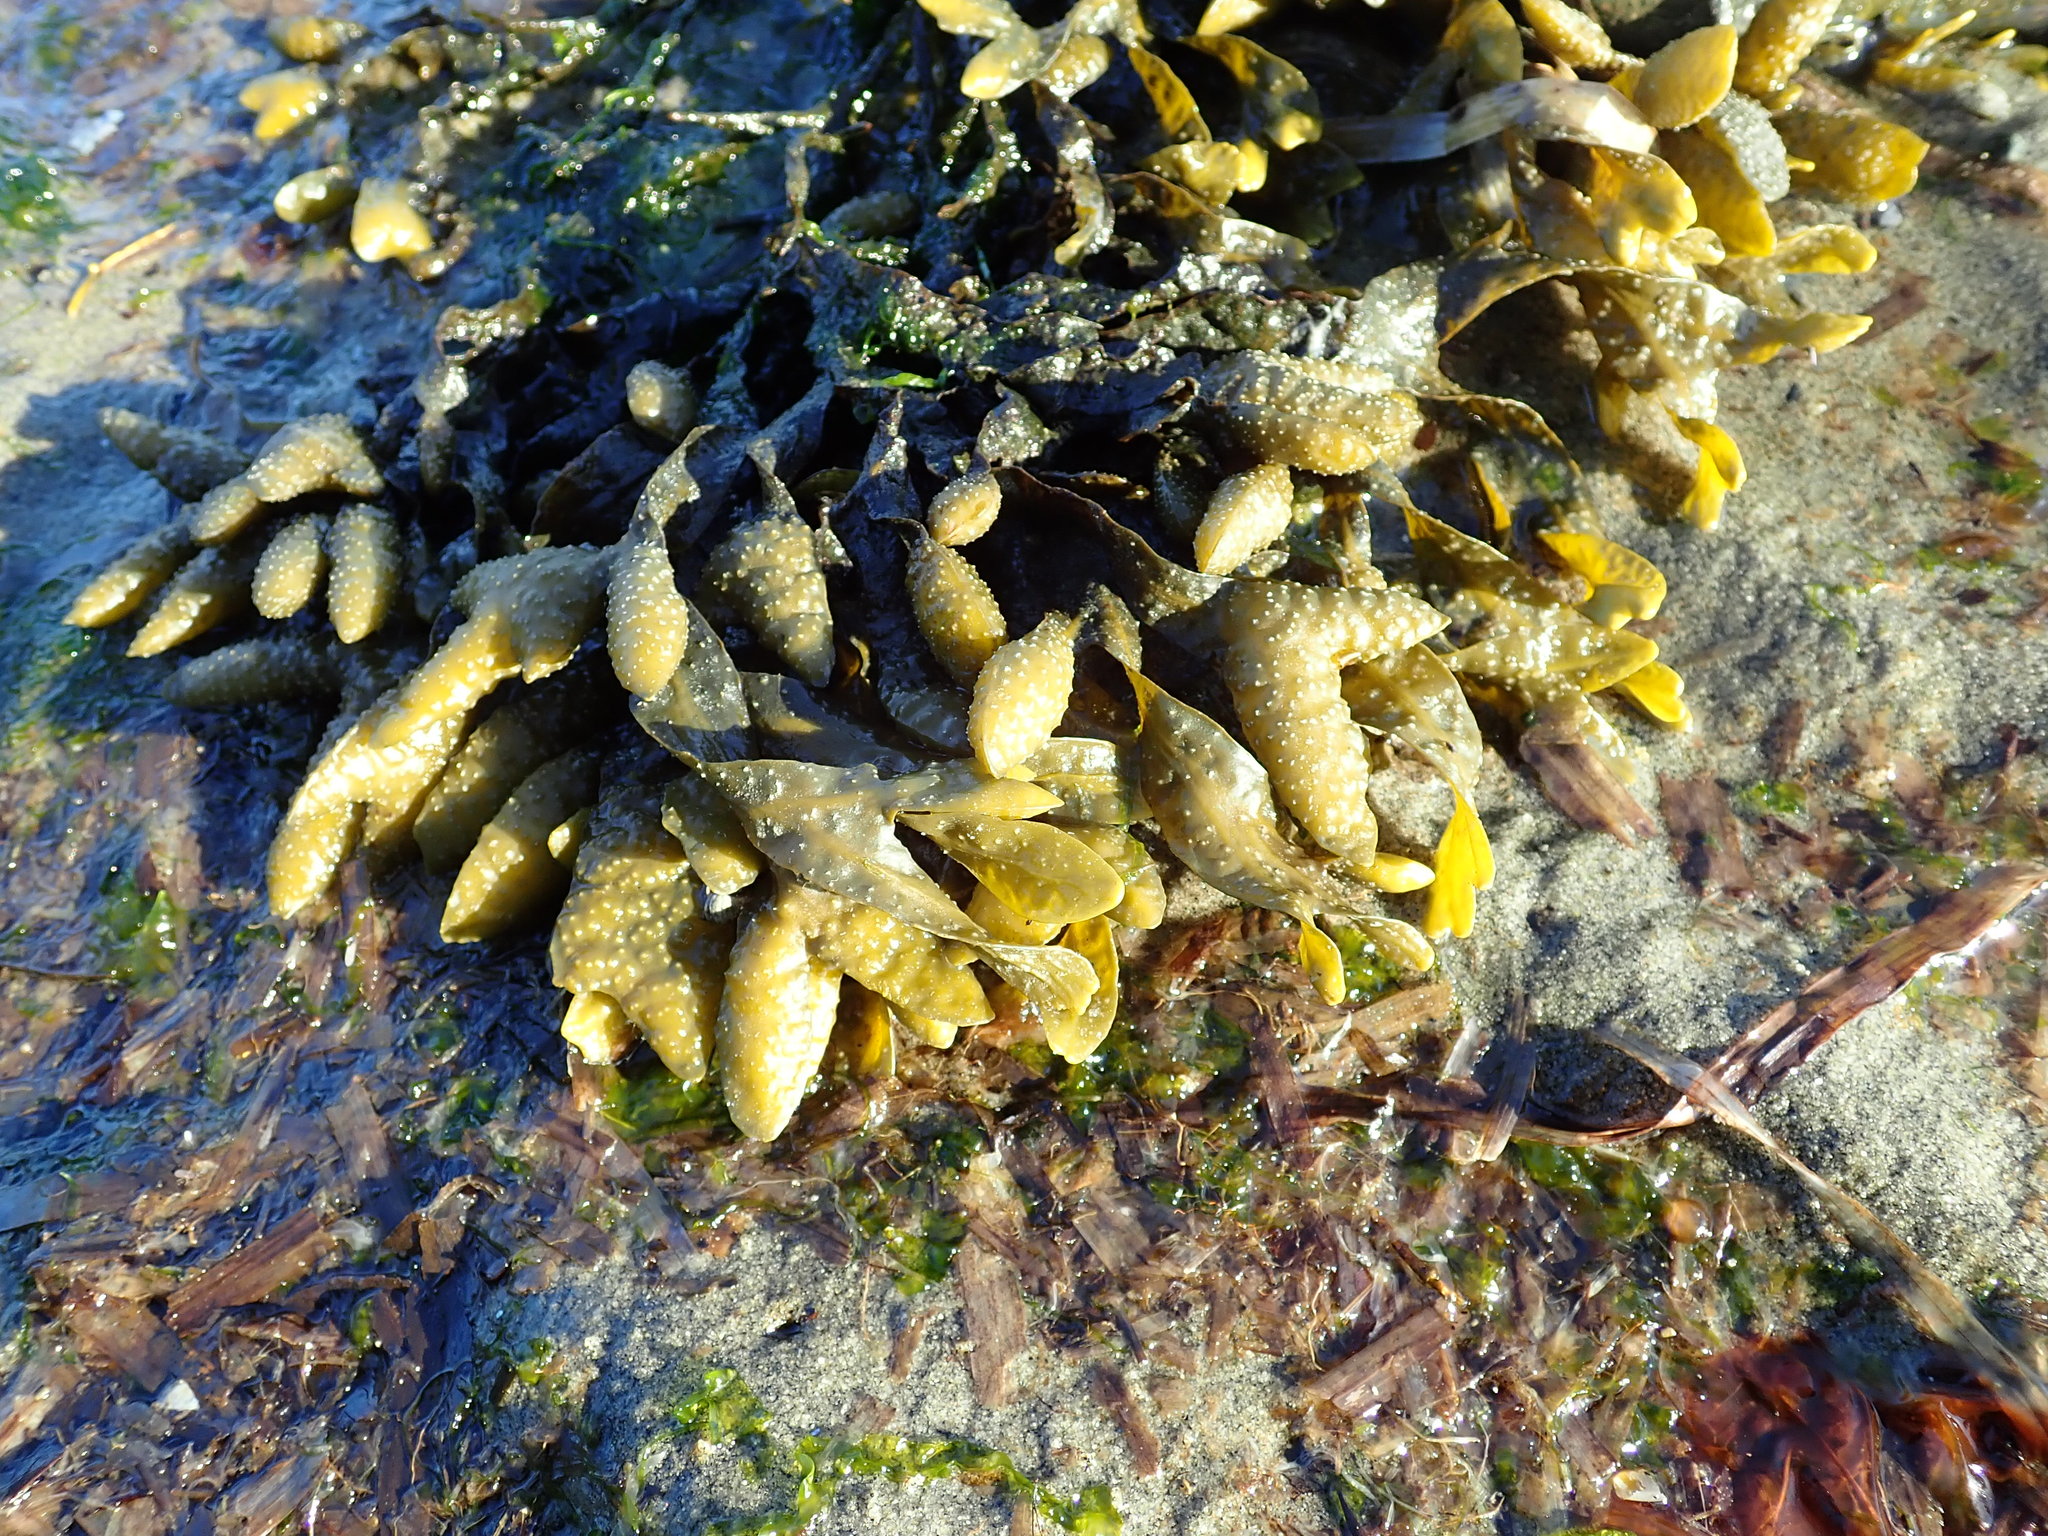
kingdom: Chromista
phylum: Ochrophyta
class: Phaeophyceae
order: Fucales
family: Fucaceae
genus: Fucus
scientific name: Fucus distichus
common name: Rockweed
